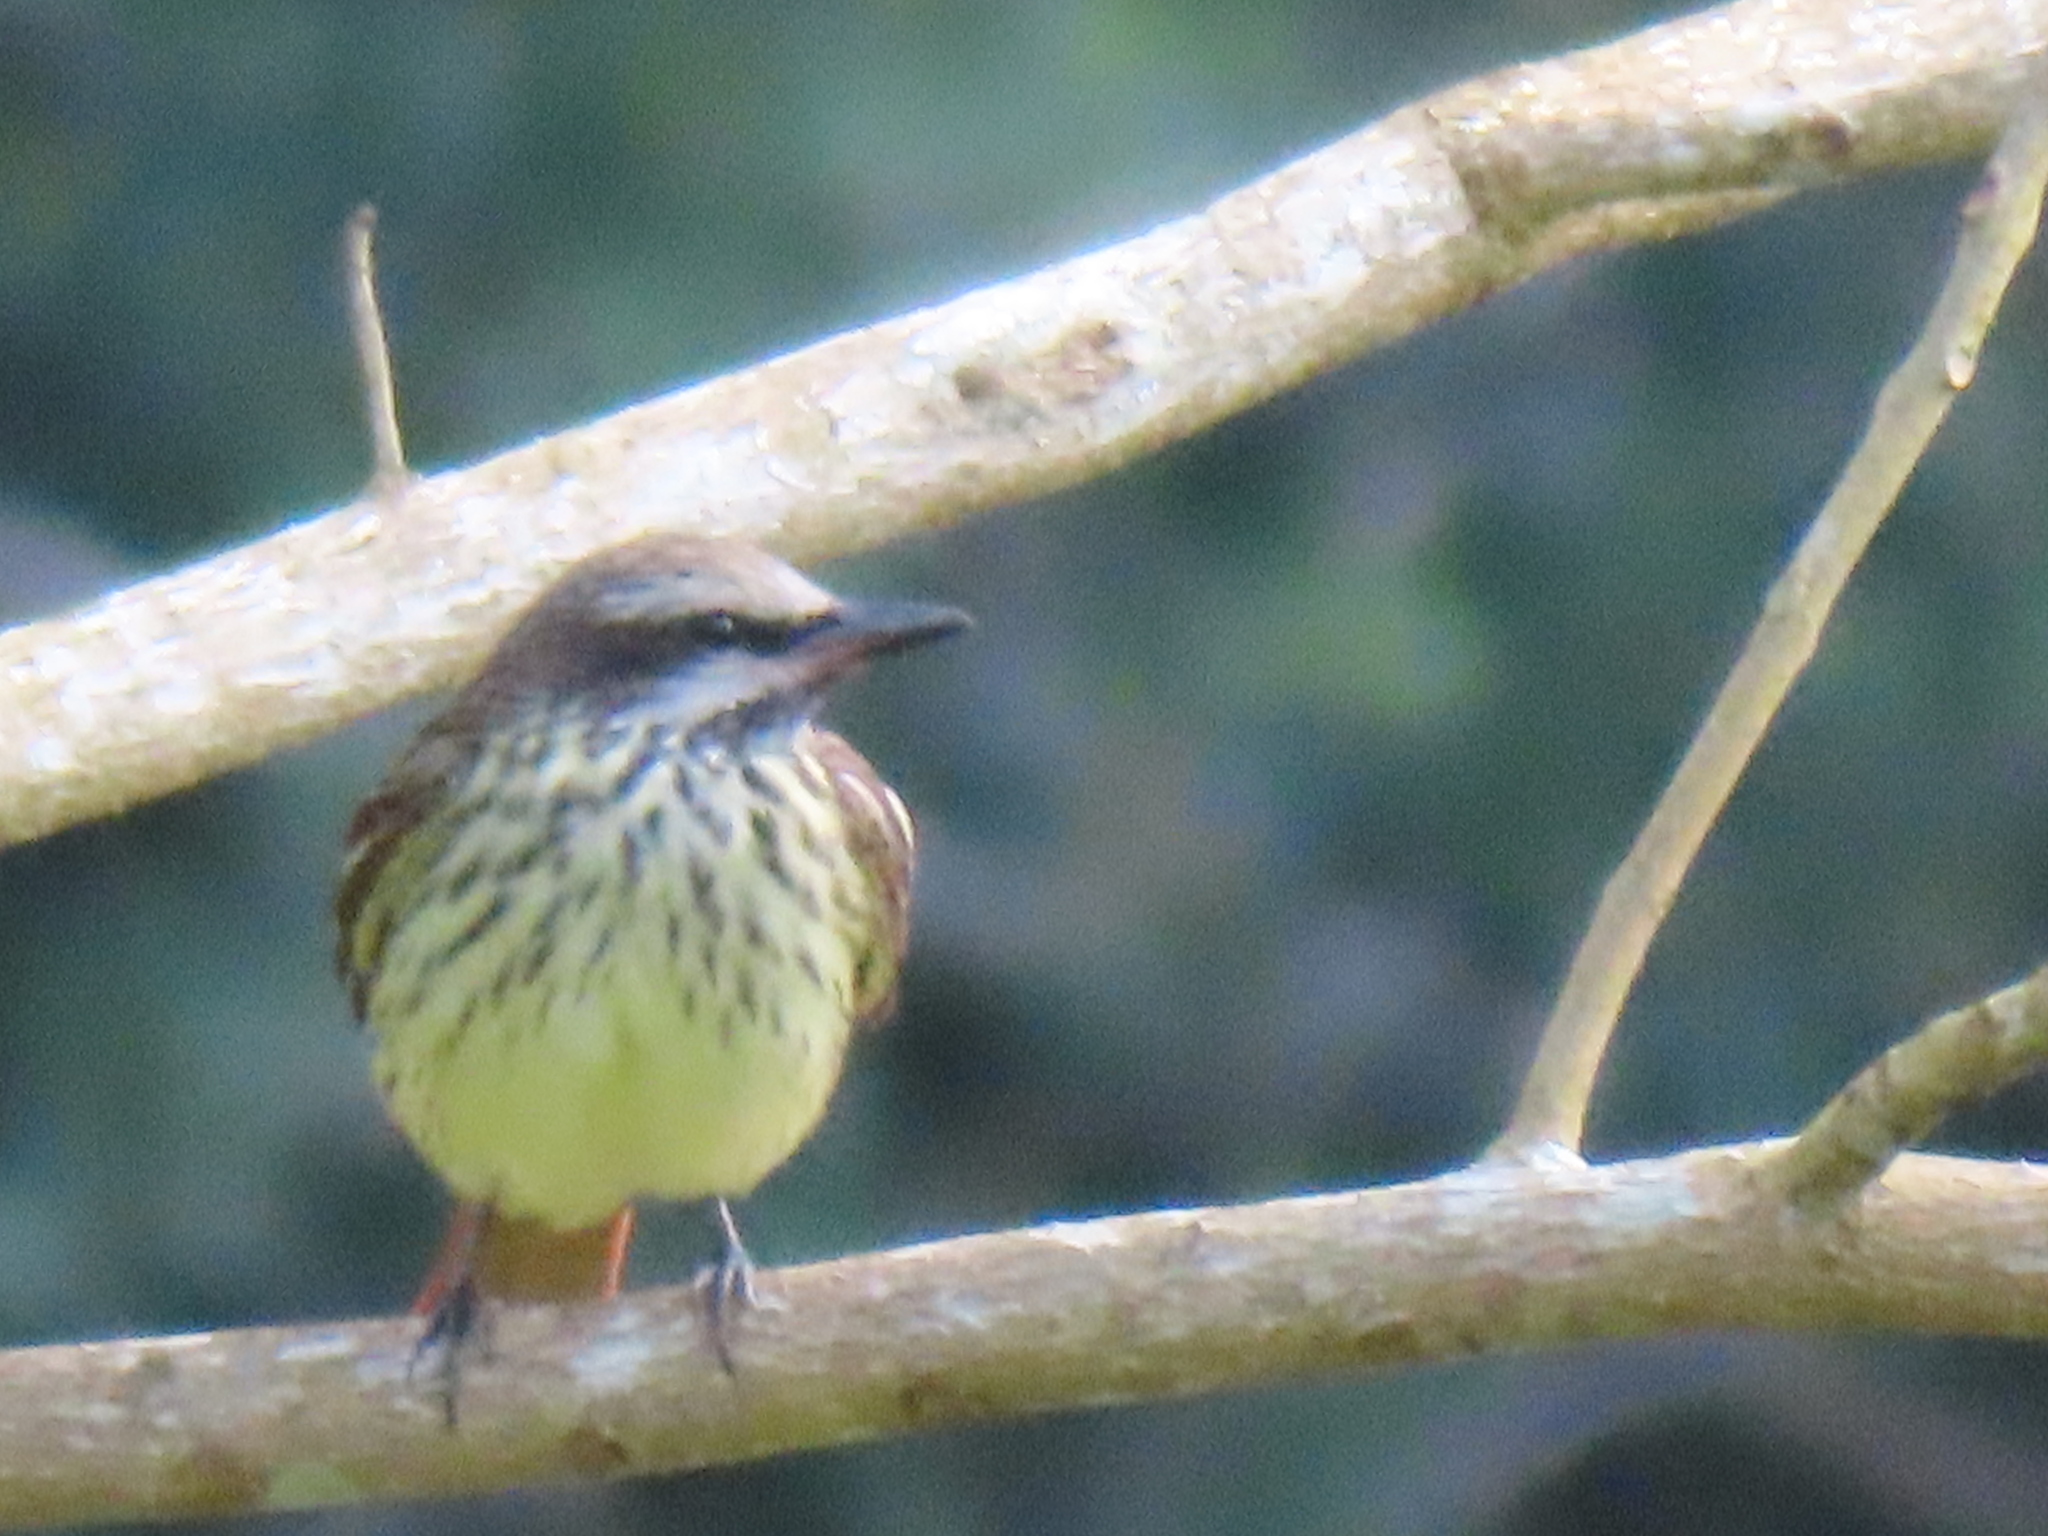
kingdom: Animalia
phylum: Chordata
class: Aves
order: Passeriformes
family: Tyrannidae
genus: Myiodynastes
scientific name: Myiodynastes luteiventris
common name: Sulphur-bellied flycatcher
